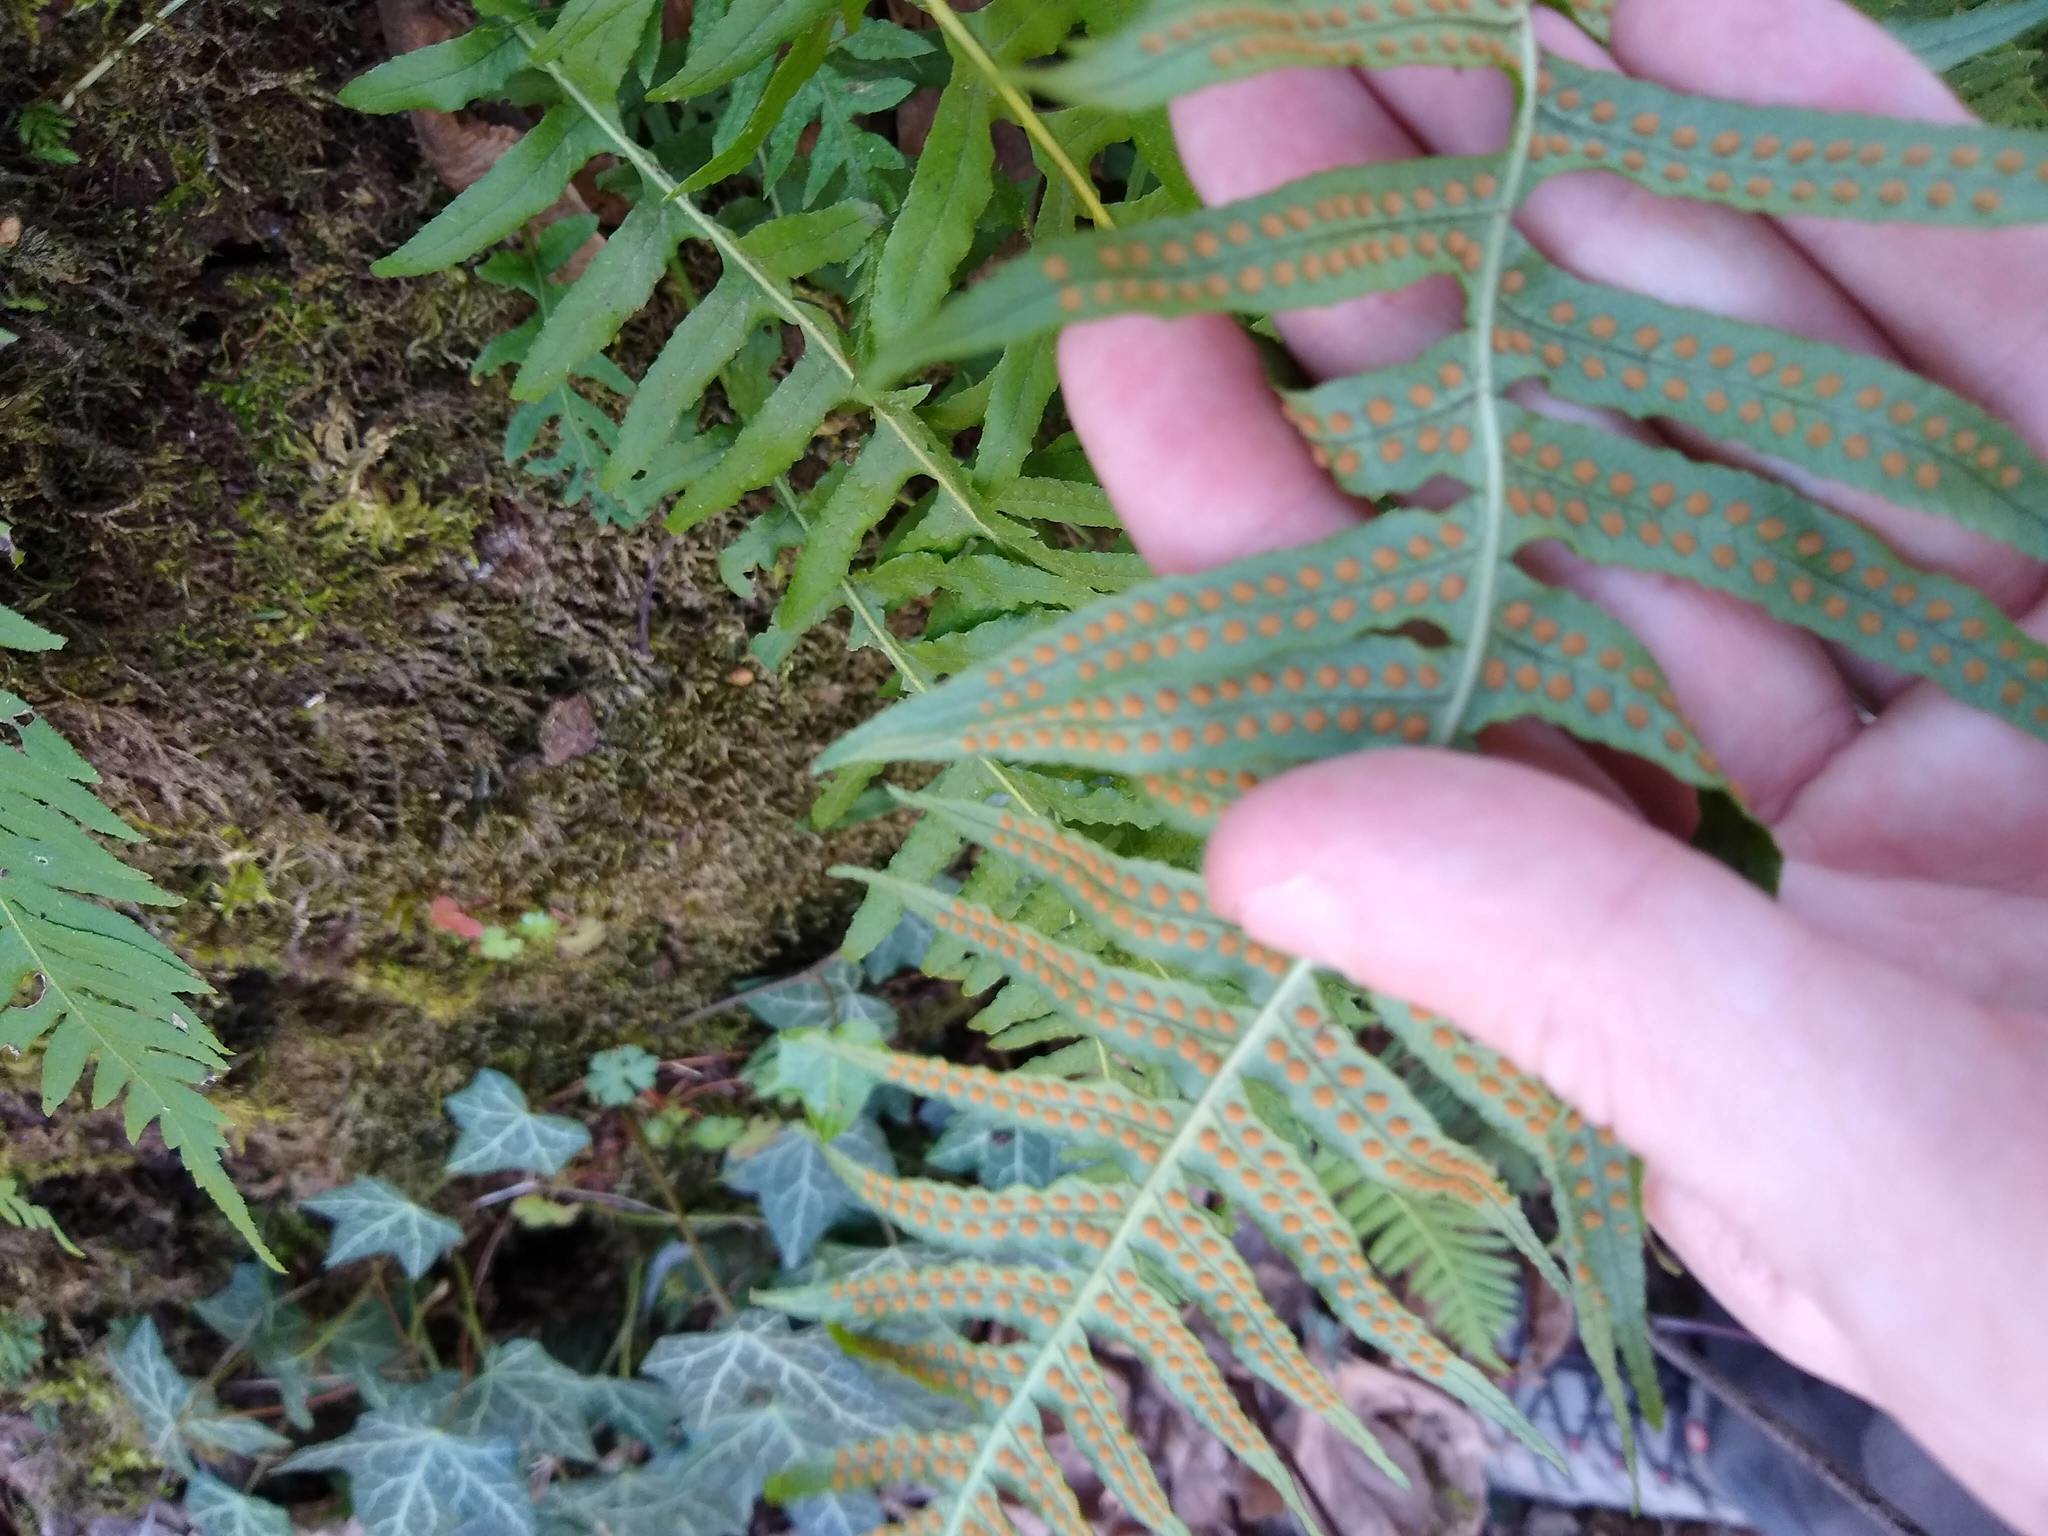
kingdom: Plantae
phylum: Tracheophyta
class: Polypodiopsida
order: Polypodiales
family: Polypodiaceae
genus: Polypodium
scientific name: Polypodium glycyrrhiza
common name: Licorice fern
